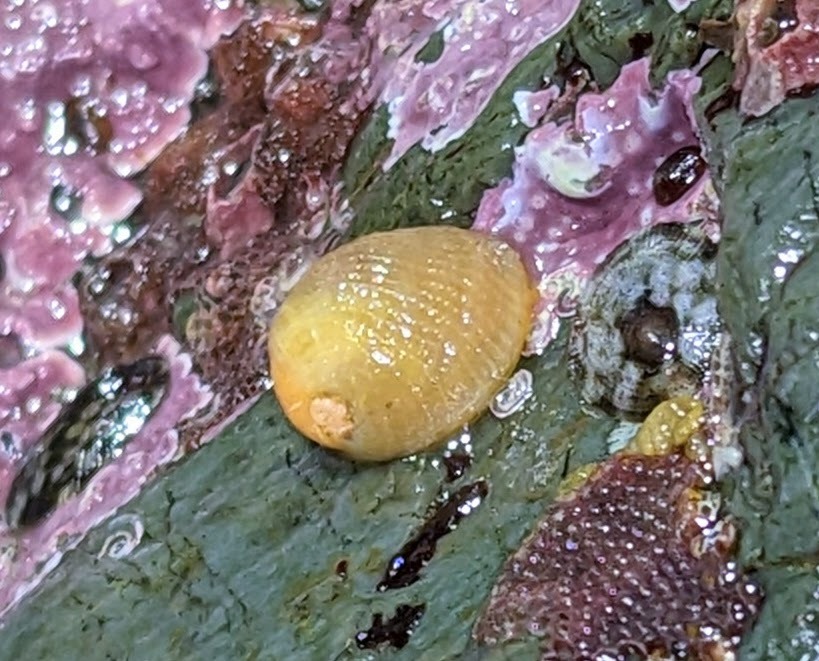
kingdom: Animalia
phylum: Mollusca
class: Gastropoda
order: Littorinimorpha
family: Velutinidae
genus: Velutina
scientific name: Velutina velutina
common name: Smooth lamellaria
